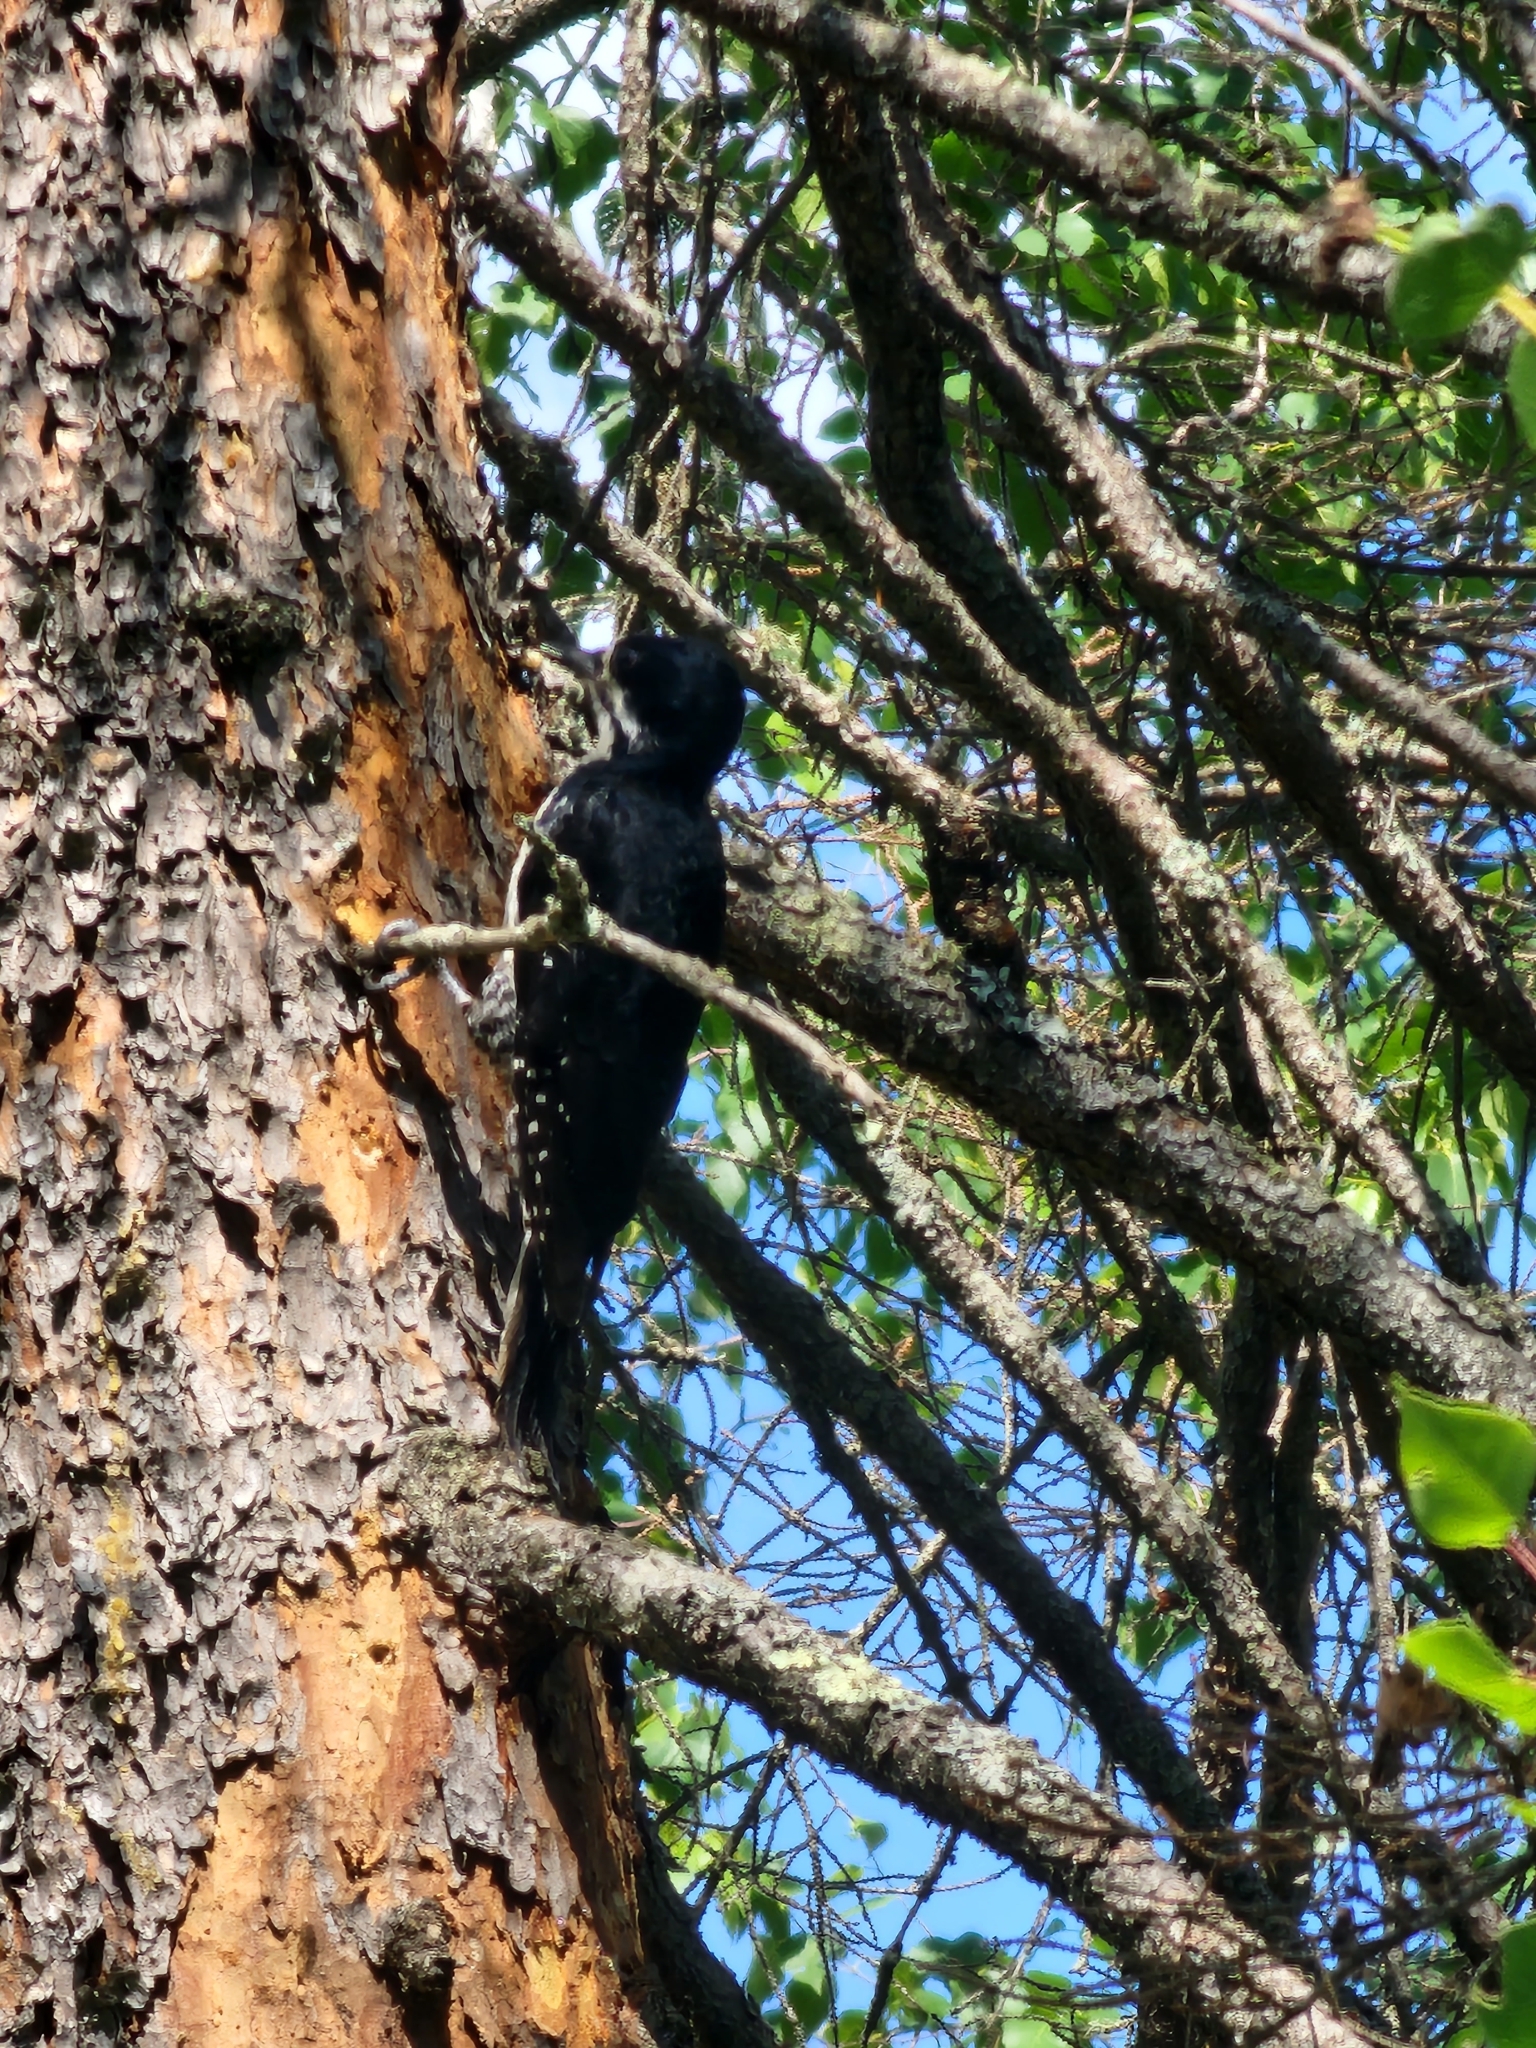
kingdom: Animalia
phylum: Chordata
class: Aves
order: Piciformes
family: Picidae
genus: Picoides
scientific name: Picoides arcticus
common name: Black-backed woodpecker
